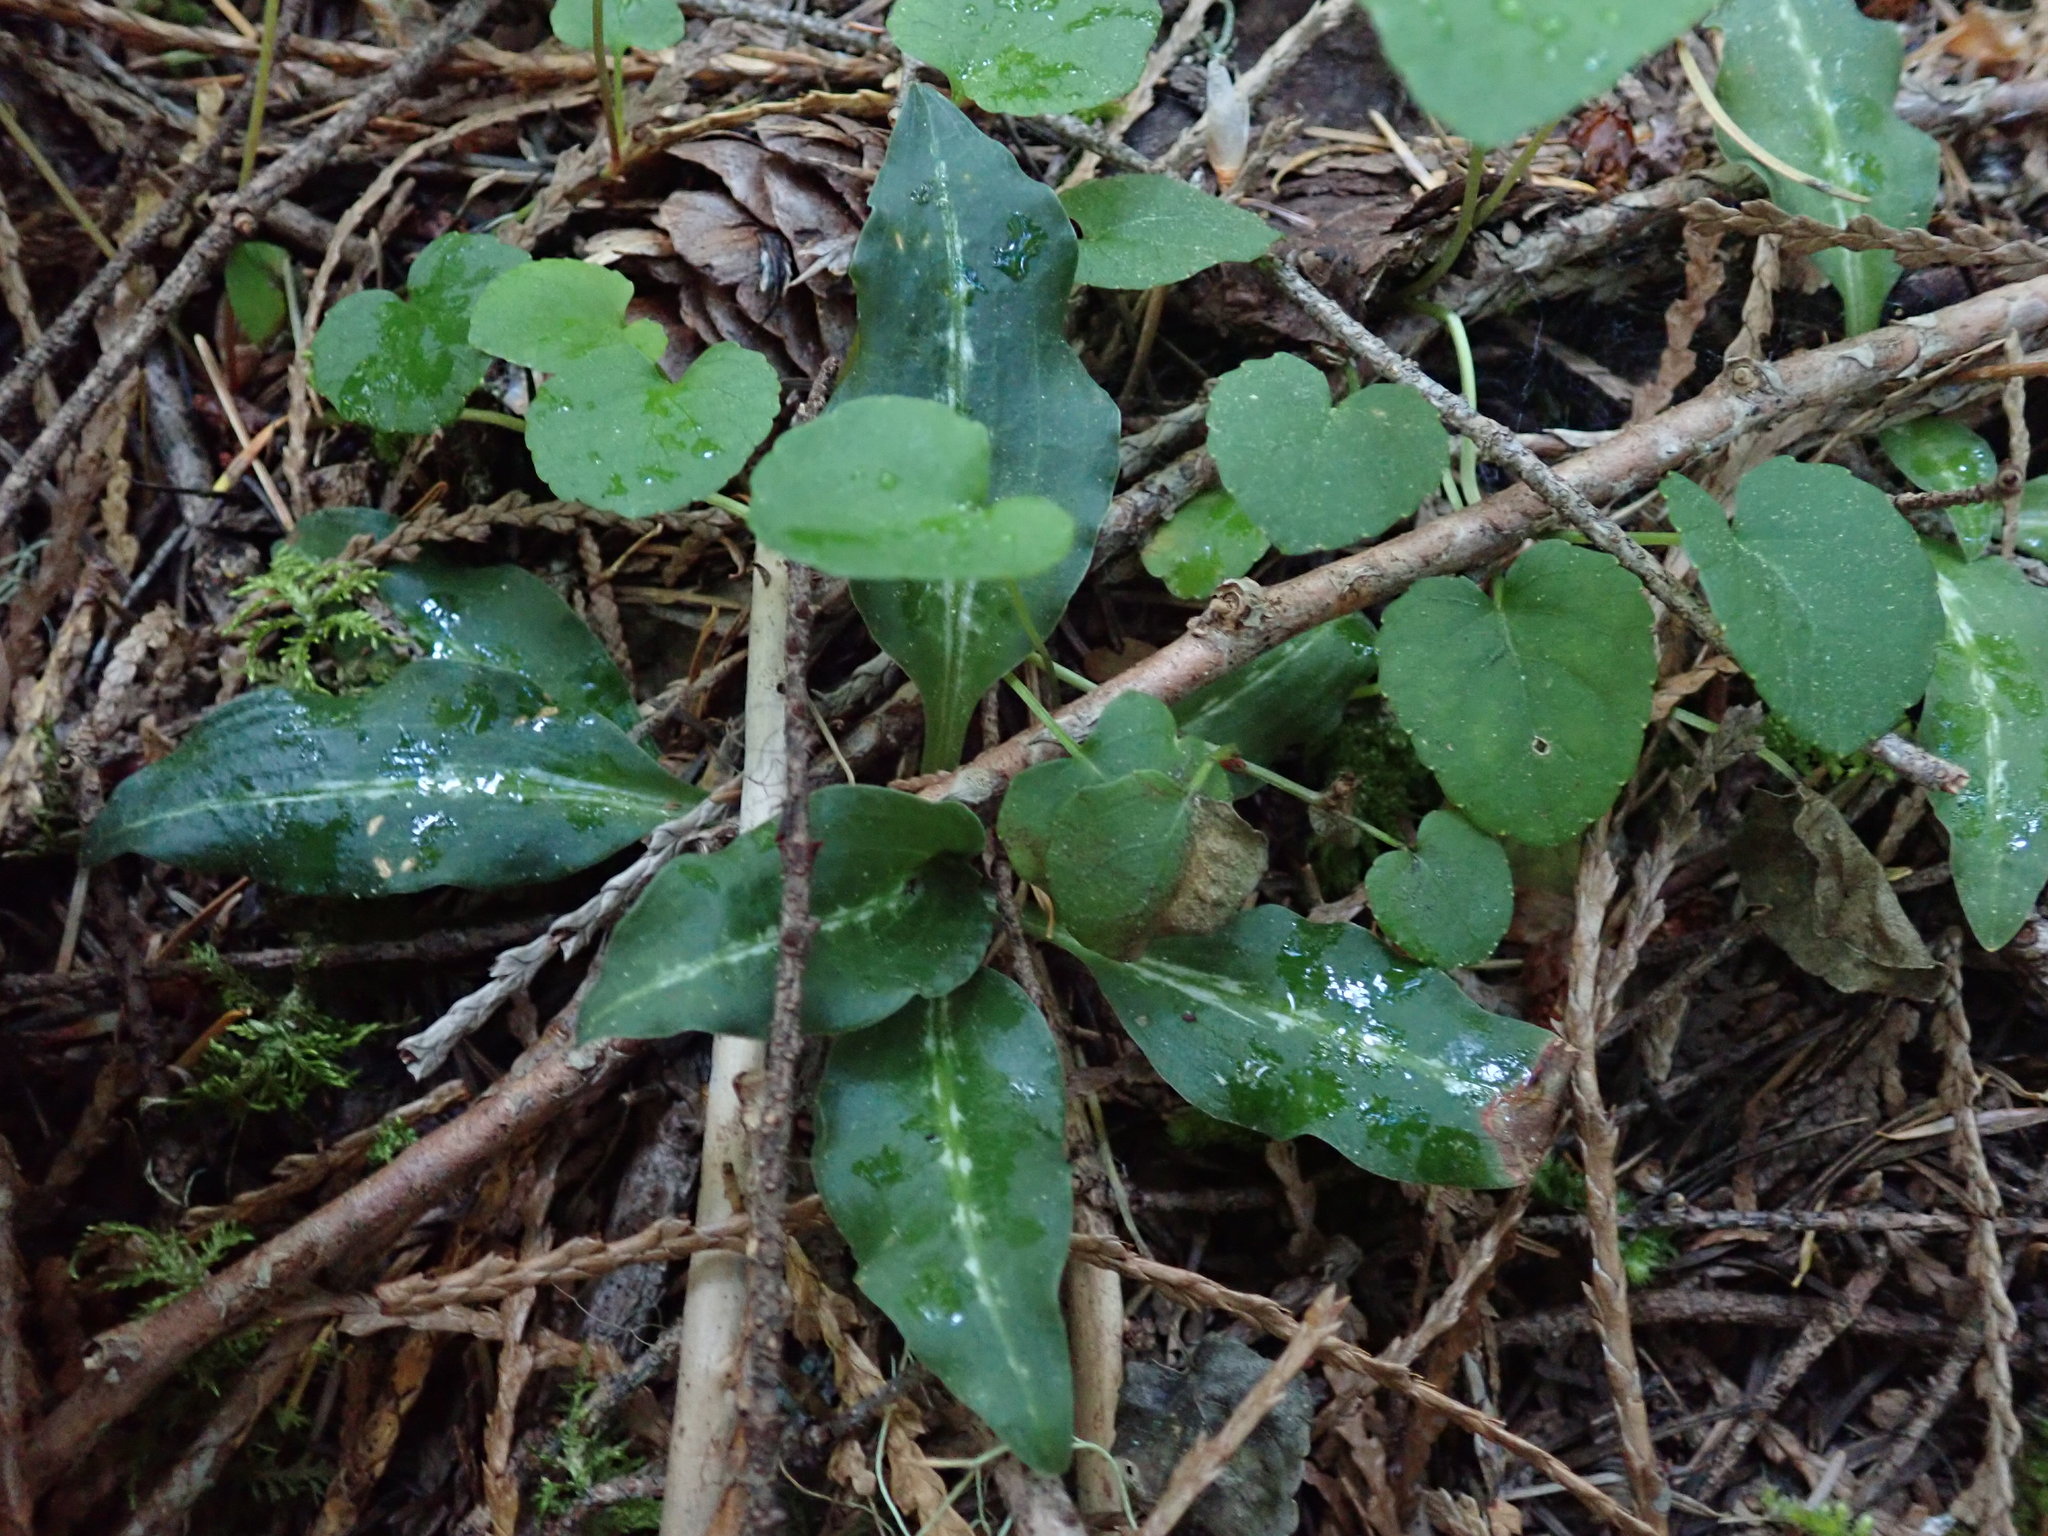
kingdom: Plantae
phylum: Tracheophyta
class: Liliopsida
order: Asparagales
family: Orchidaceae
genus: Goodyera
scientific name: Goodyera oblongifolia
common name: Giant rattlesnake-plantain
